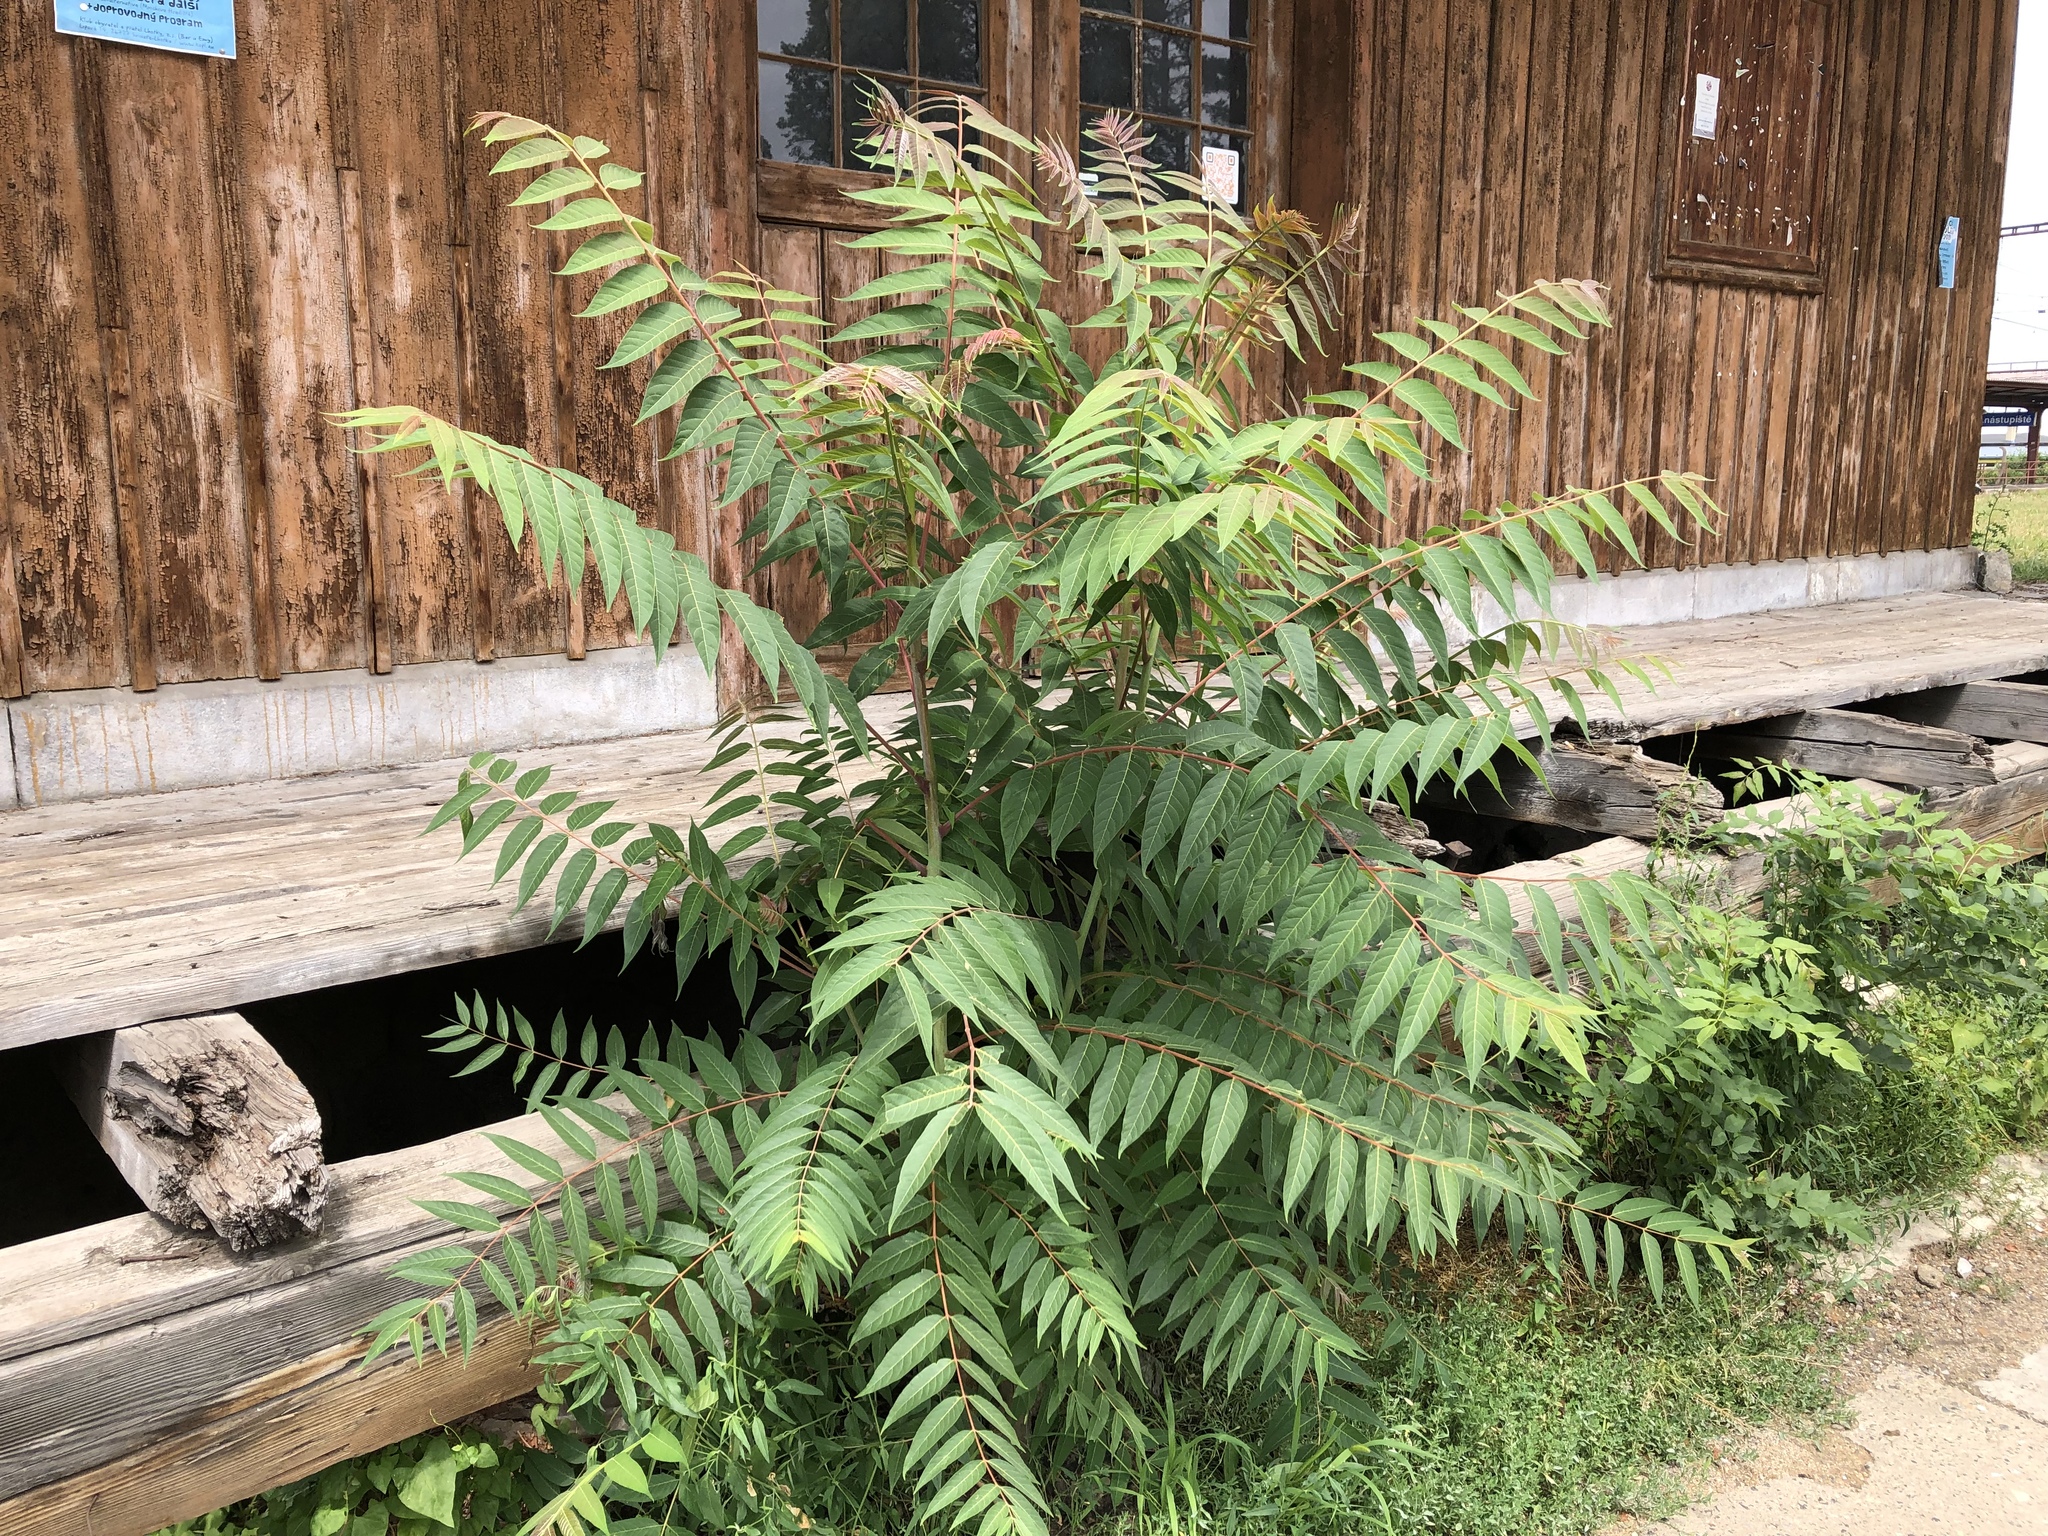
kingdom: Plantae
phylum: Tracheophyta
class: Magnoliopsida
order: Sapindales
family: Simaroubaceae
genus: Ailanthus
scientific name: Ailanthus altissima
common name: Tree-of-heaven
